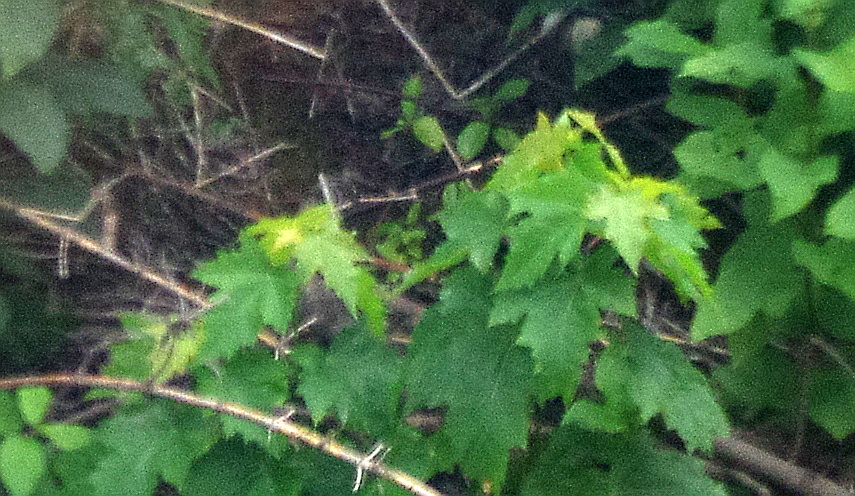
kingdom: Plantae
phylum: Tracheophyta
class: Magnoliopsida
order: Sapindales
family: Sapindaceae
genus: Acer
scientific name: Acer platanoides
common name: Norway maple
